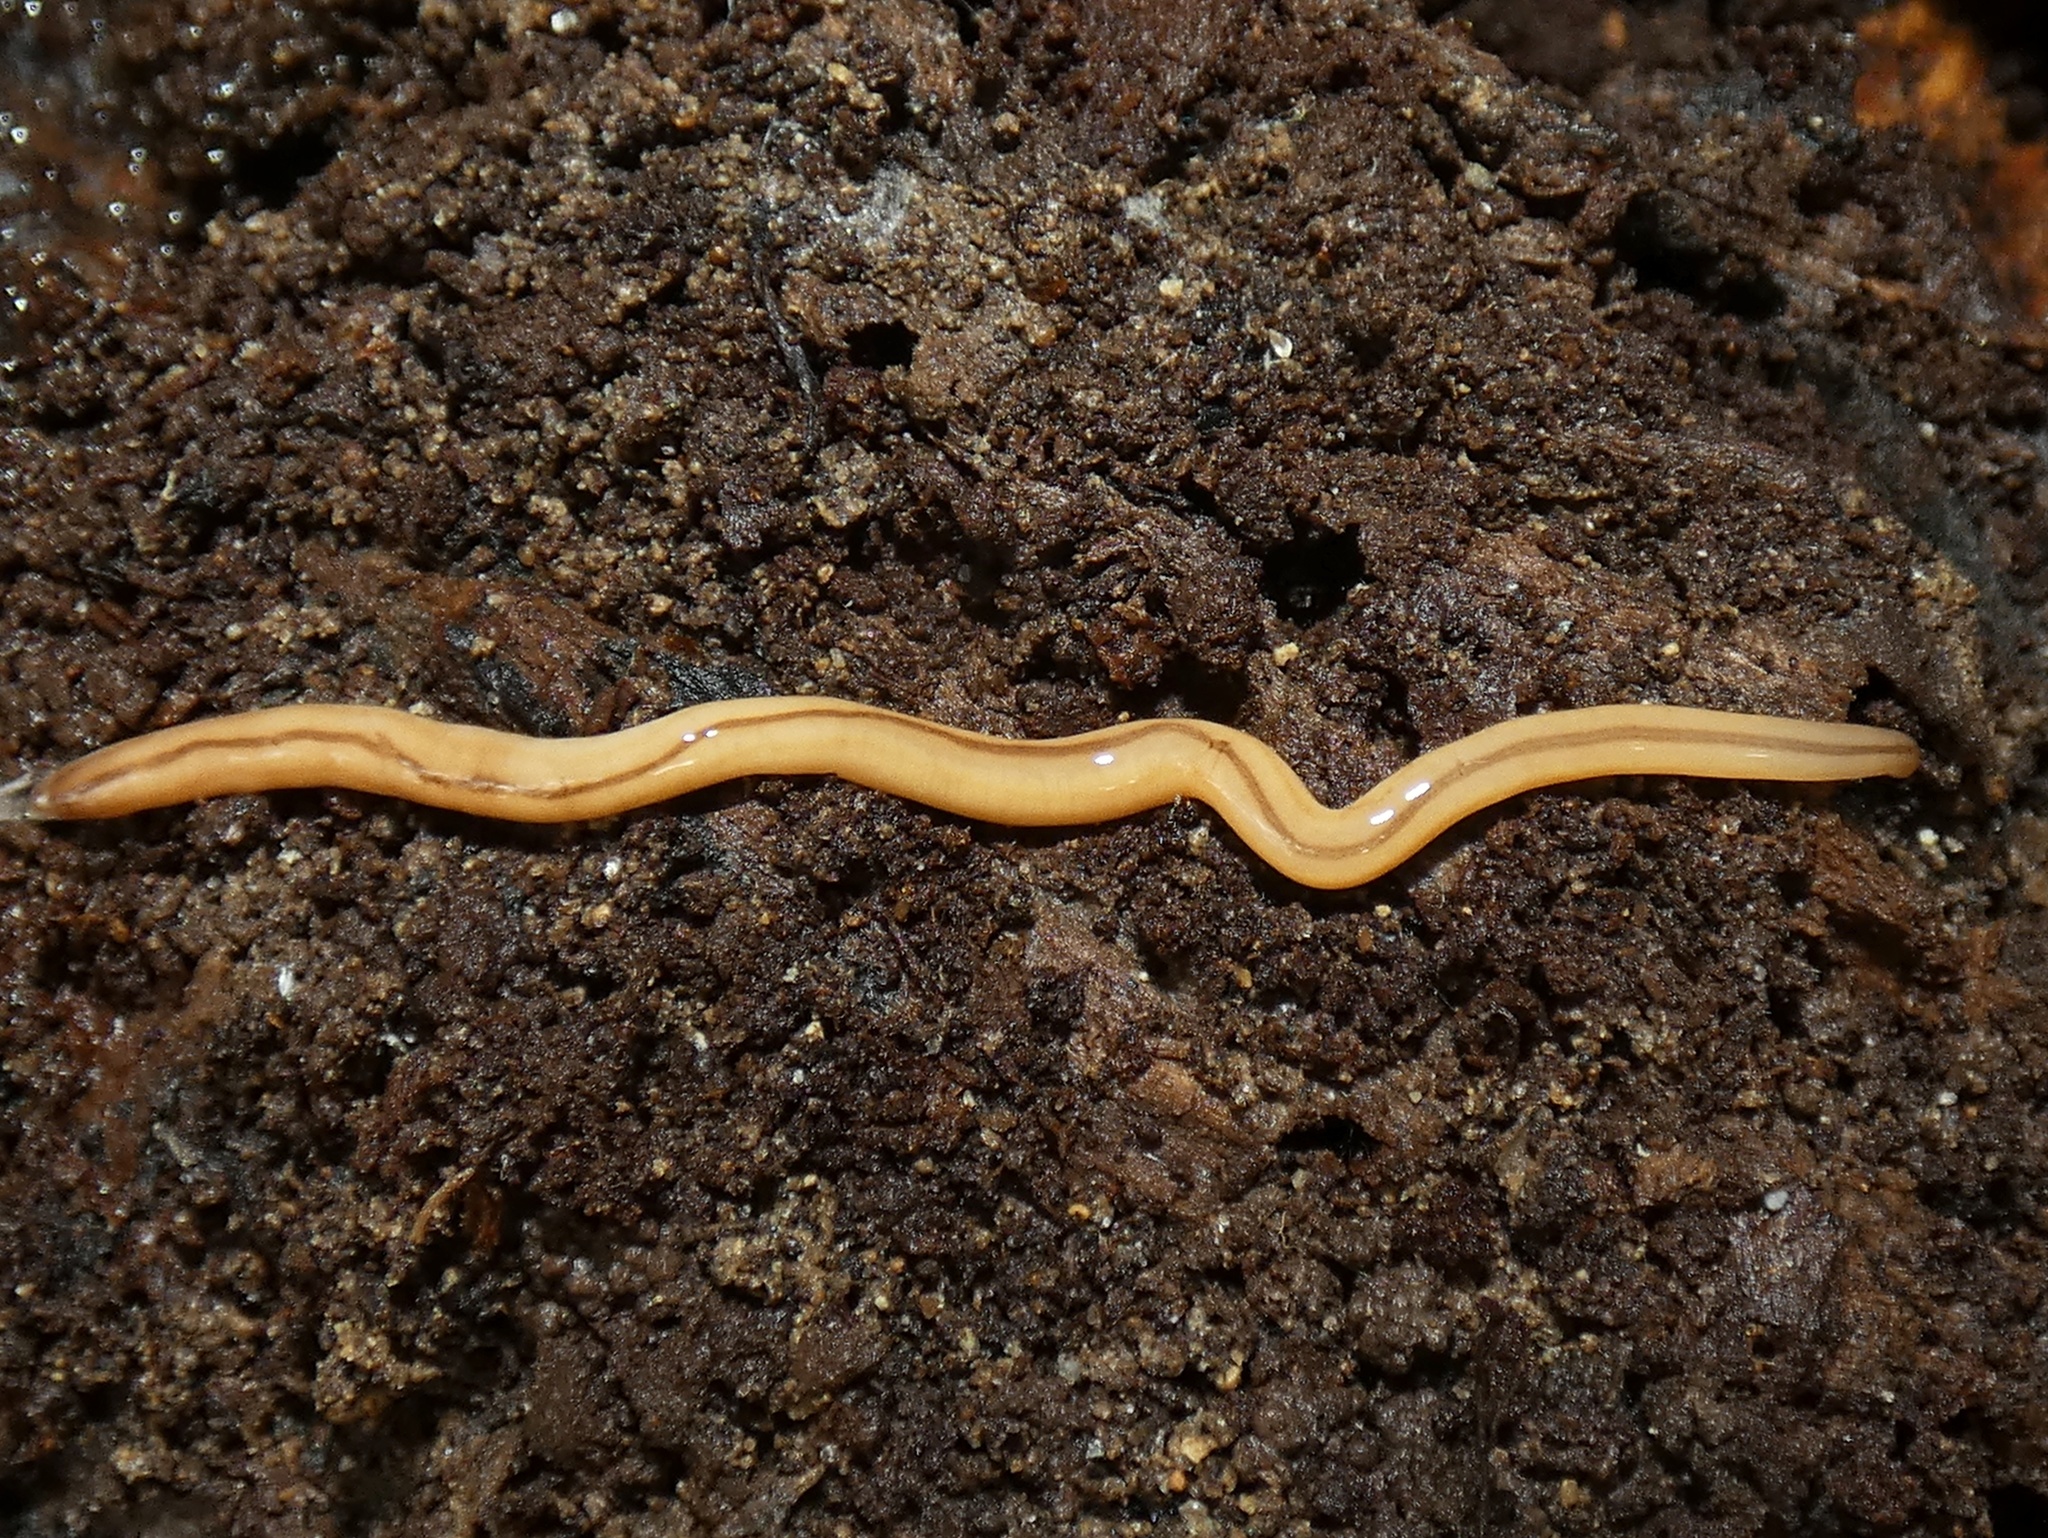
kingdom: Animalia
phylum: Nemertea
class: Hoplonemertea
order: Monostilifera
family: Prosorhochmidae
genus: Geonemertes
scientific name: Geonemertes pelaensis
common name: Land nemertean
